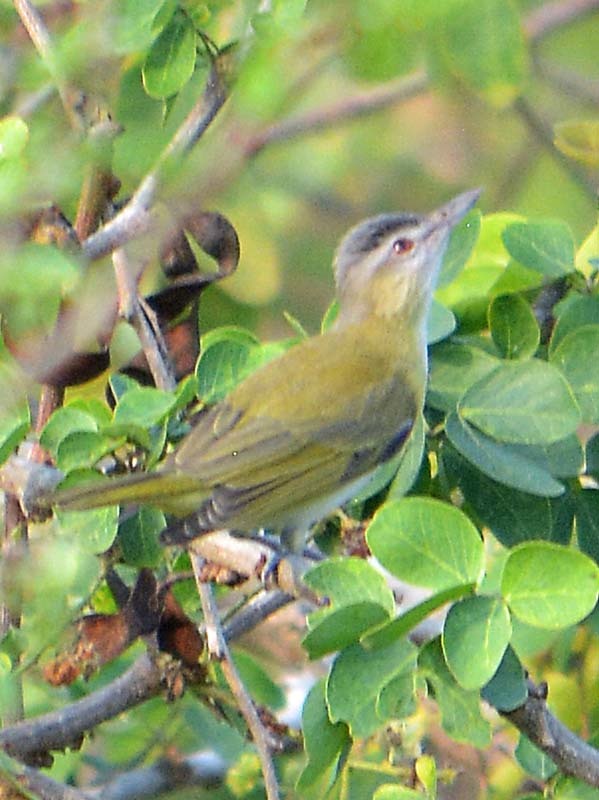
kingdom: Animalia
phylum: Chordata
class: Aves
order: Passeriformes
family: Vireonidae
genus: Vireo
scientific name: Vireo flavoviridis
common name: Yellow-green vireo
